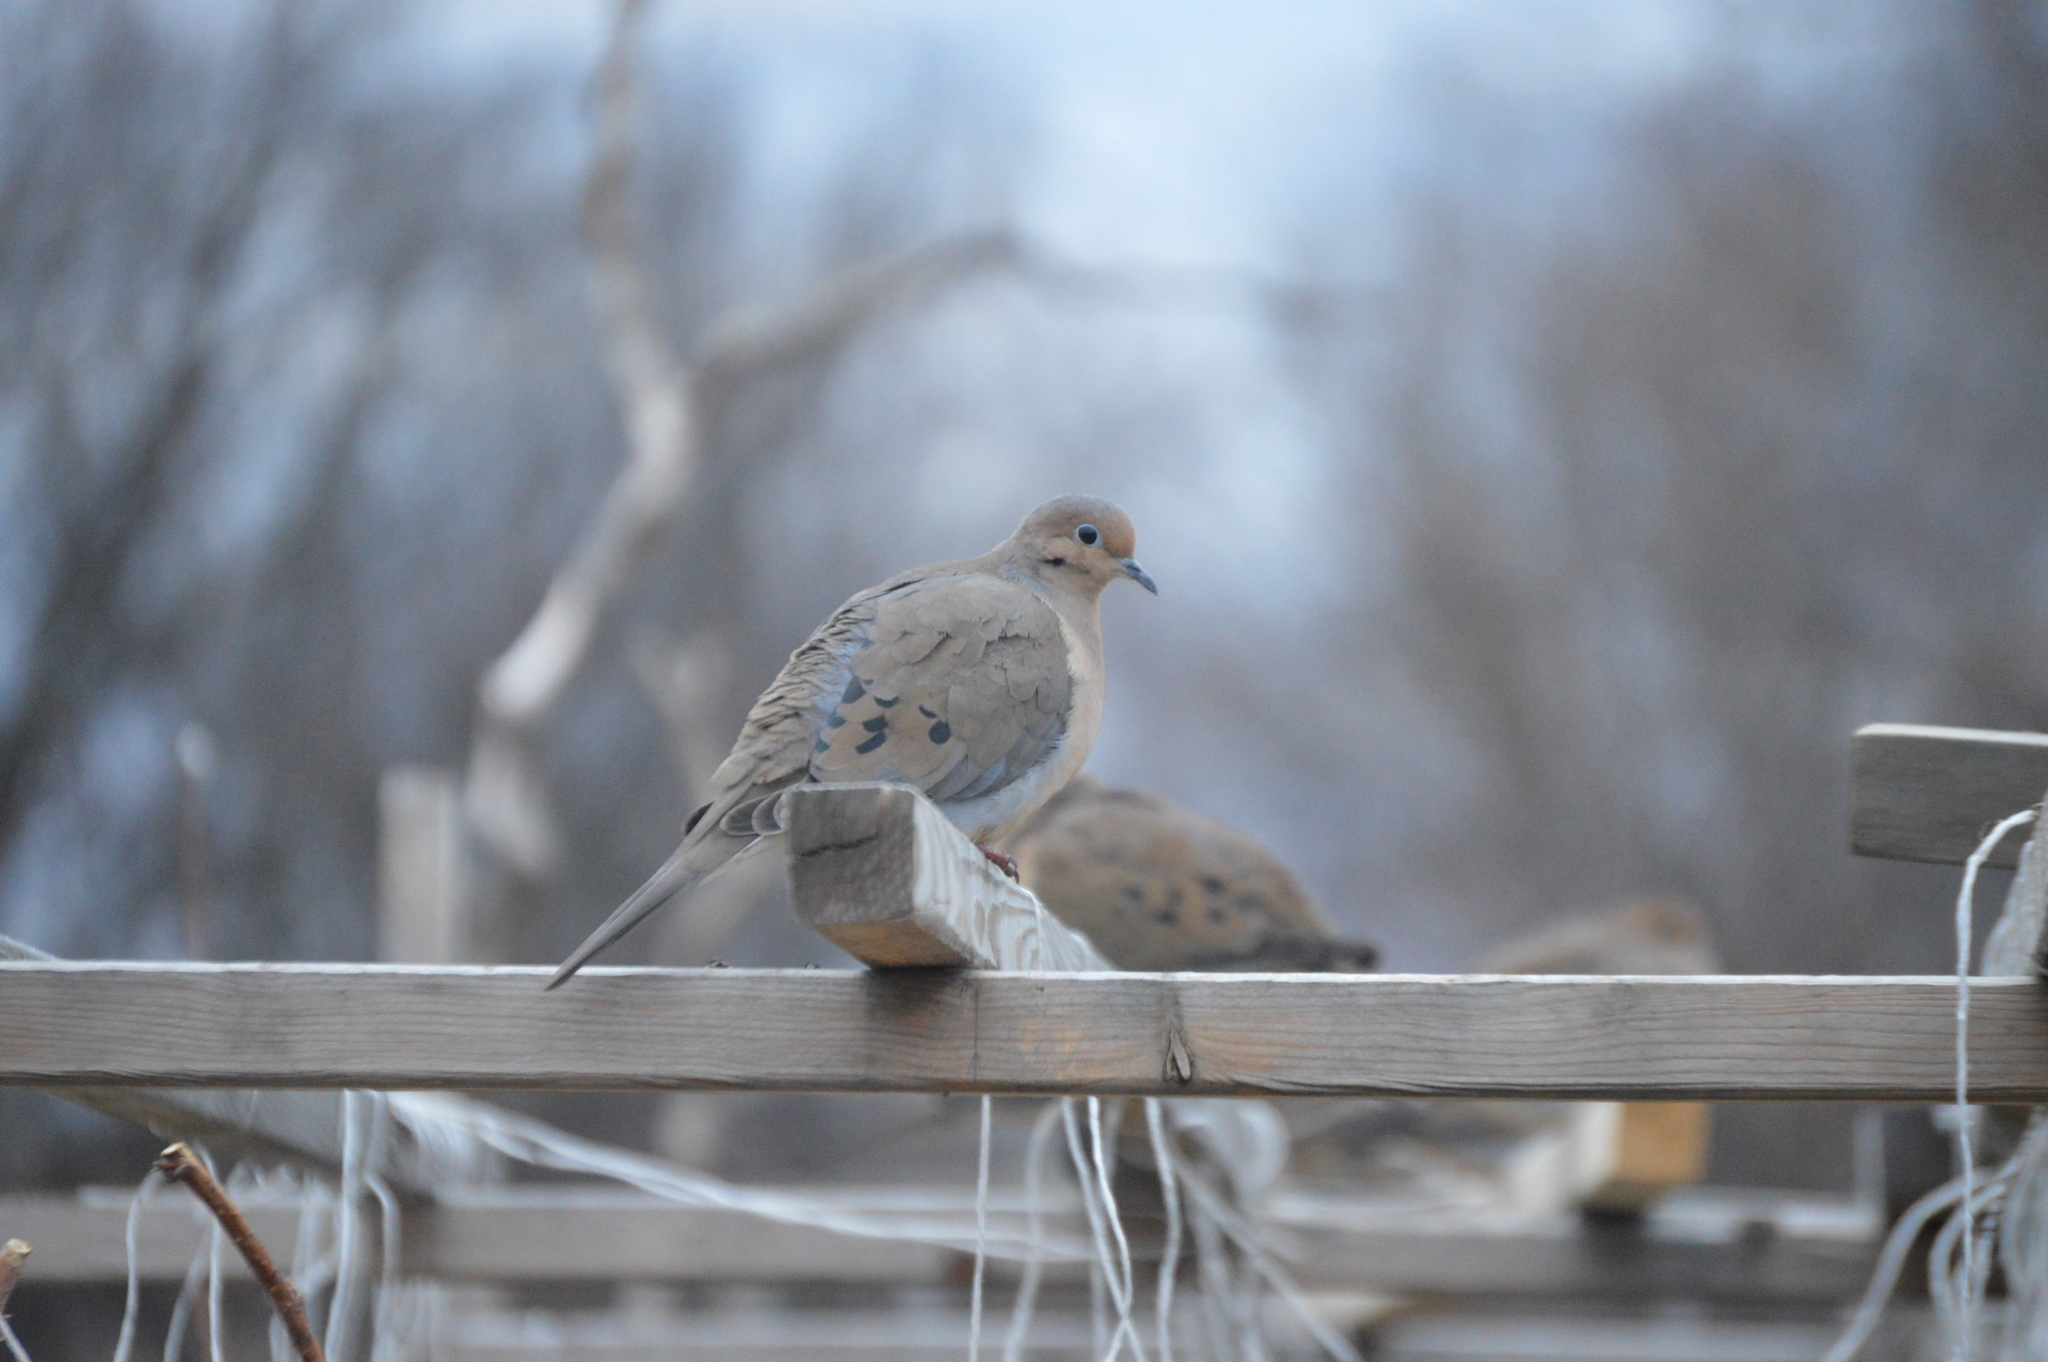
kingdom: Animalia
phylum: Chordata
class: Aves
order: Columbiformes
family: Columbidae
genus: Zenaida
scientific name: Zenaida macroura
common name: Mourning dove
